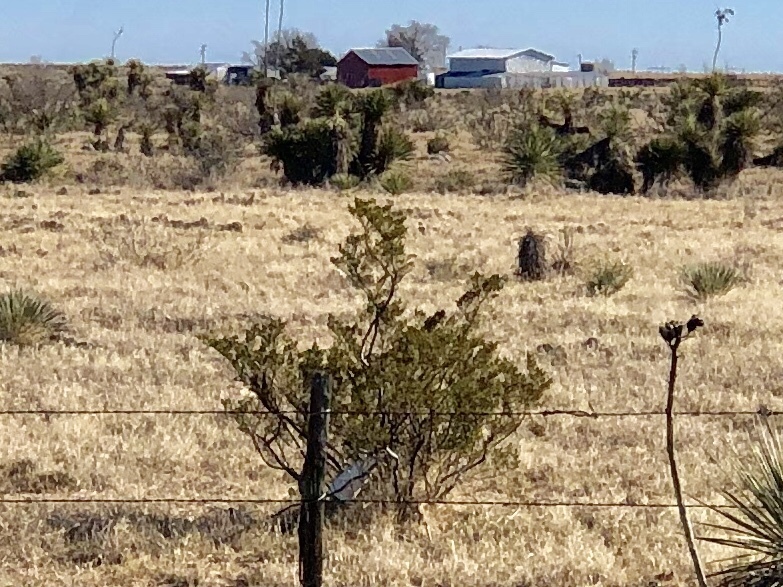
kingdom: Plantae
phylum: Tracheophyta
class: Magnoliopsida
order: Zygophyllales
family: Zygophyllaceae
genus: Larrea
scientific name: Larrea tridentata
